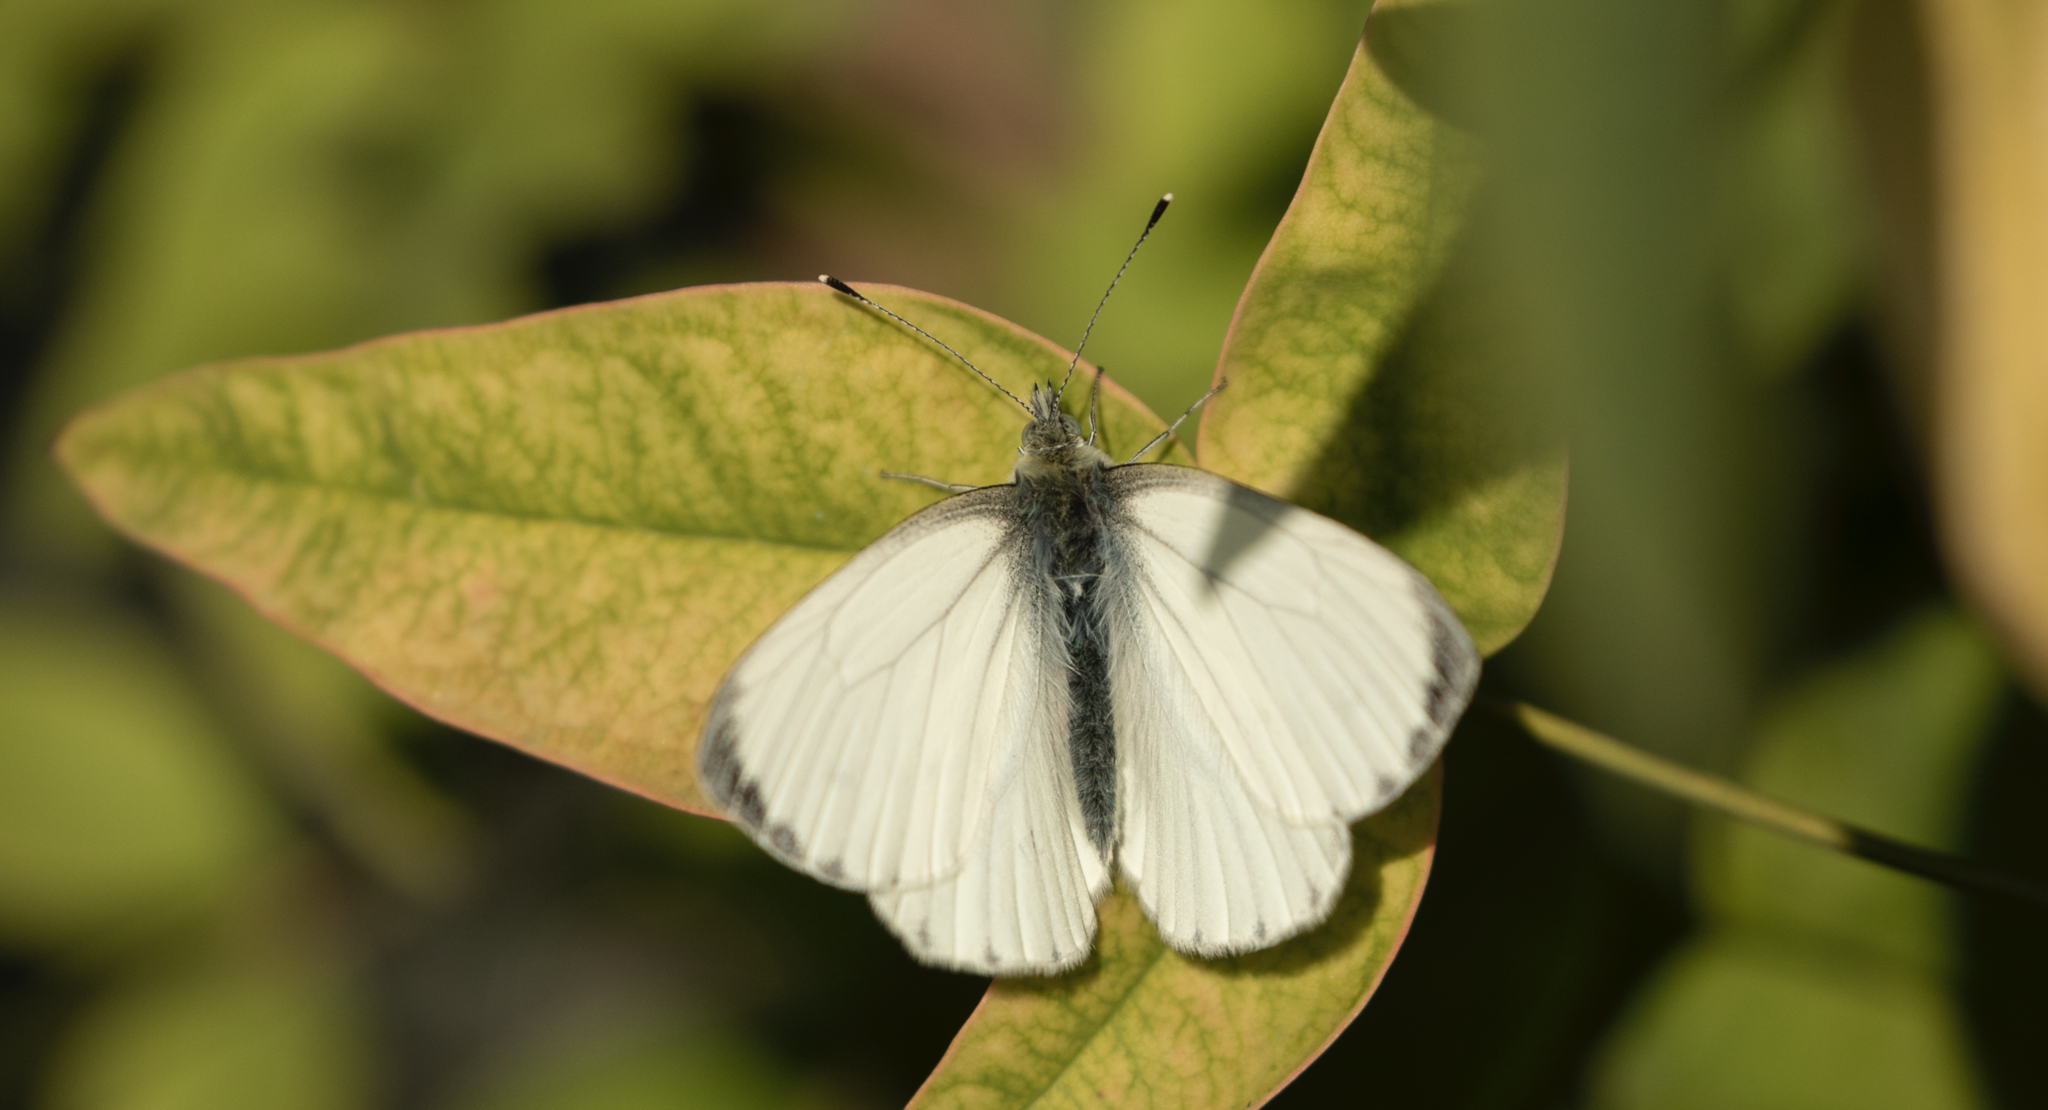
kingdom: Animalia
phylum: Arthropoda
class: Insecta
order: Lepidoptera
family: Pieridae
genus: Pieris
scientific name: Pieris napi
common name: Green-veined white
